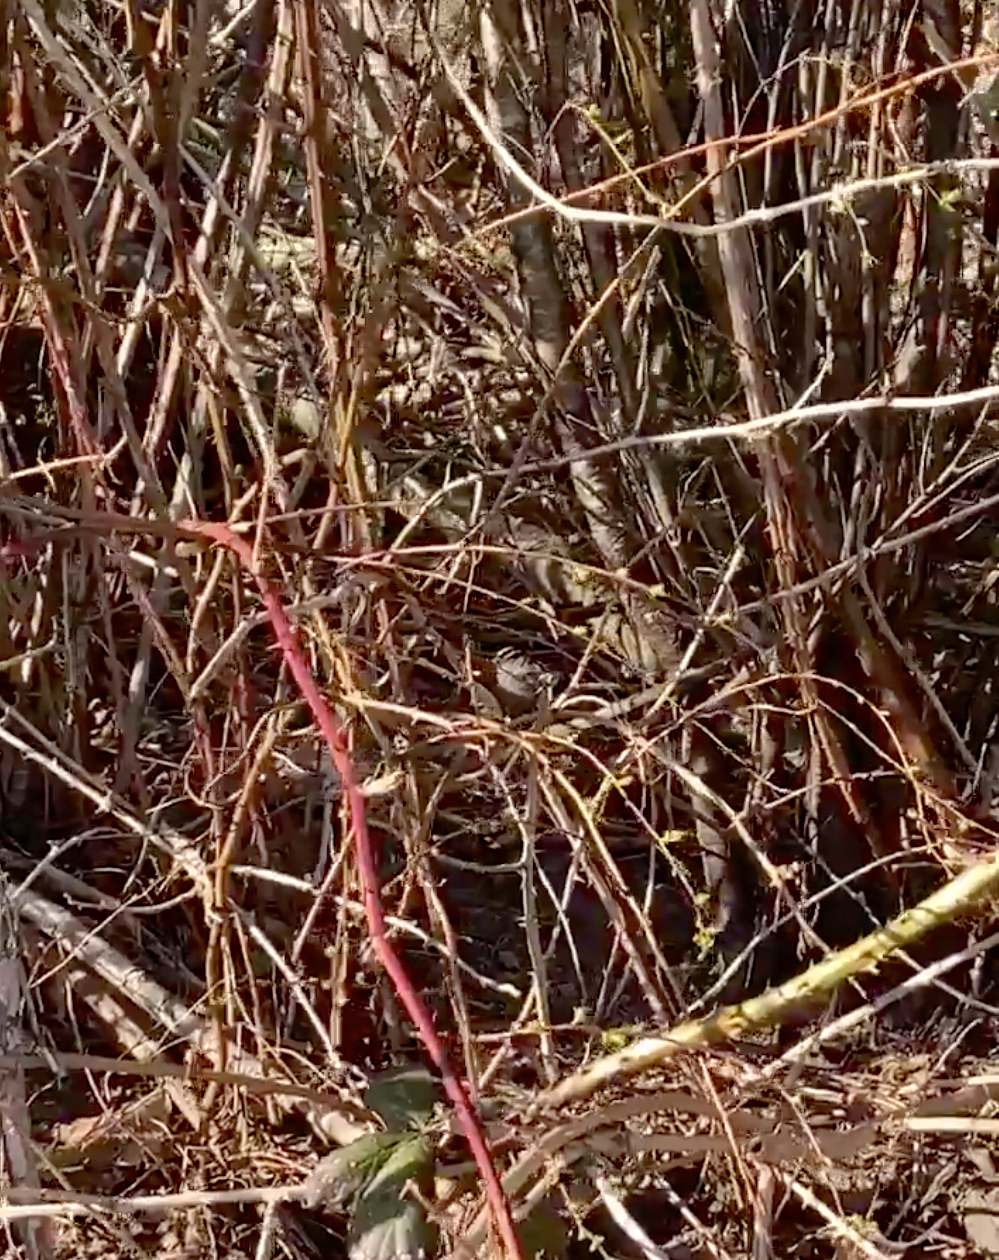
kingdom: Animalia
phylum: Chordata
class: Aves
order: Passeriformes
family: Passerellidae
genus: Zonotrichia
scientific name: Zonotrichia leucophrys
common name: White-crowned sparrow
